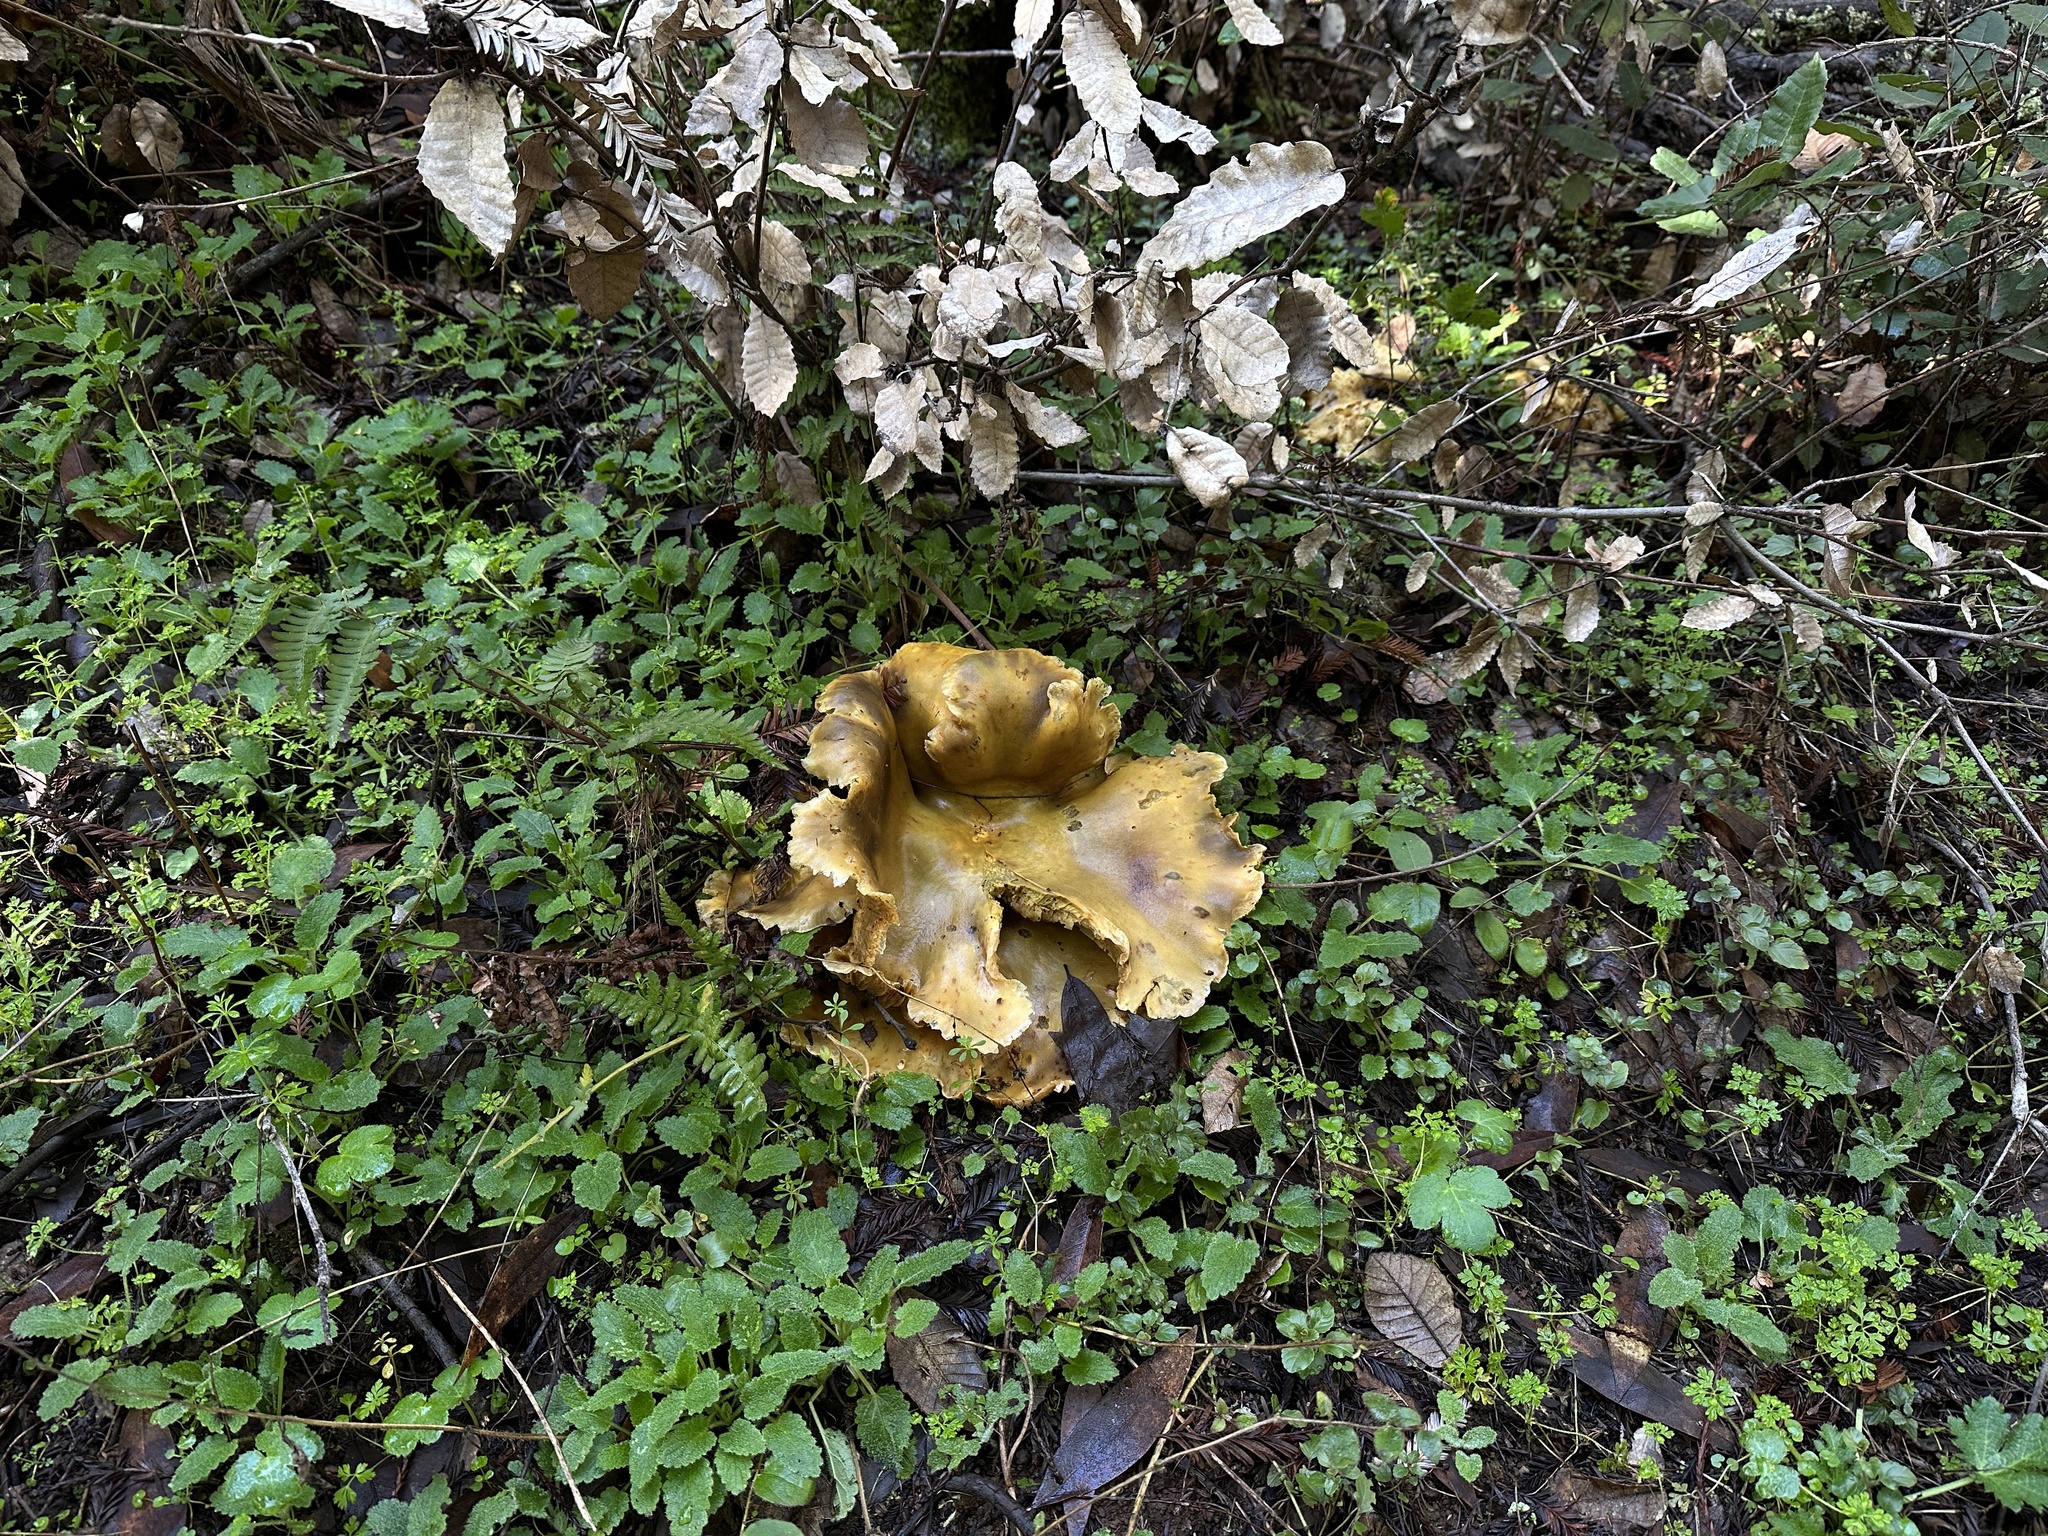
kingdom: Fungi
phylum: Basidiomycota
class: Agaricomycetes
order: Agaricales
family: Omphalotaceae
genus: Omphalotus
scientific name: Omphalotus olivascens
